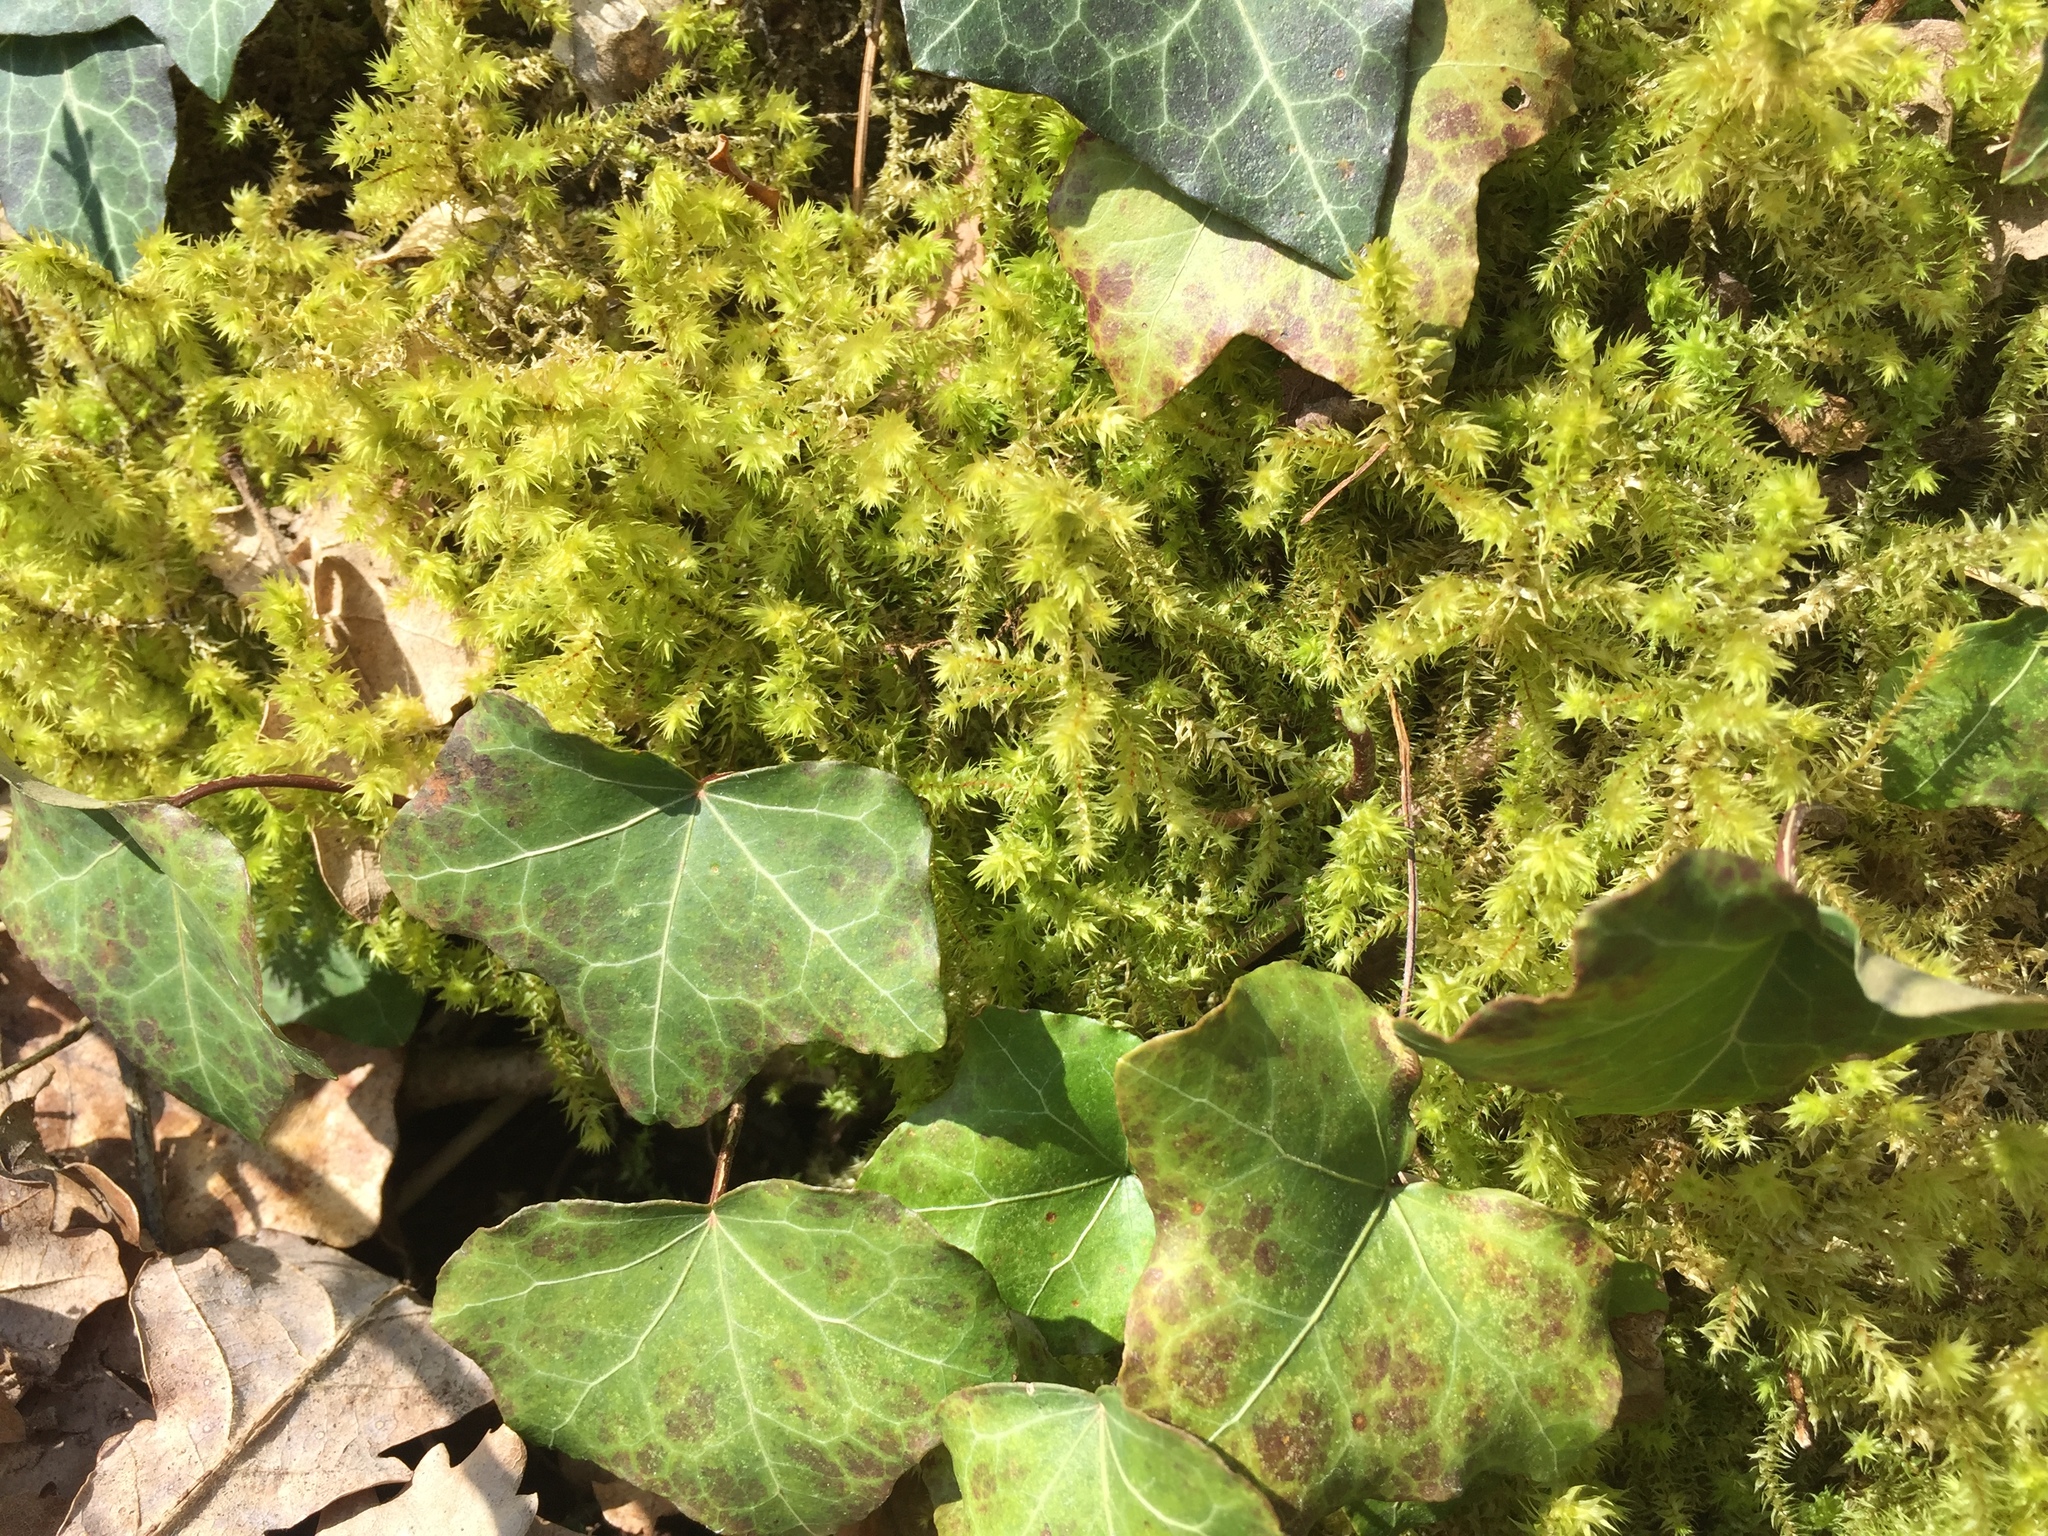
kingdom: Plantae
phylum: Bryophyta
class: Bryopsida
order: Hypnales
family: Hylocomiaceae
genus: Hylocomiadelphus
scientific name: Hylocomiadelphus triquetrus
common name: Rough goose neck moss
